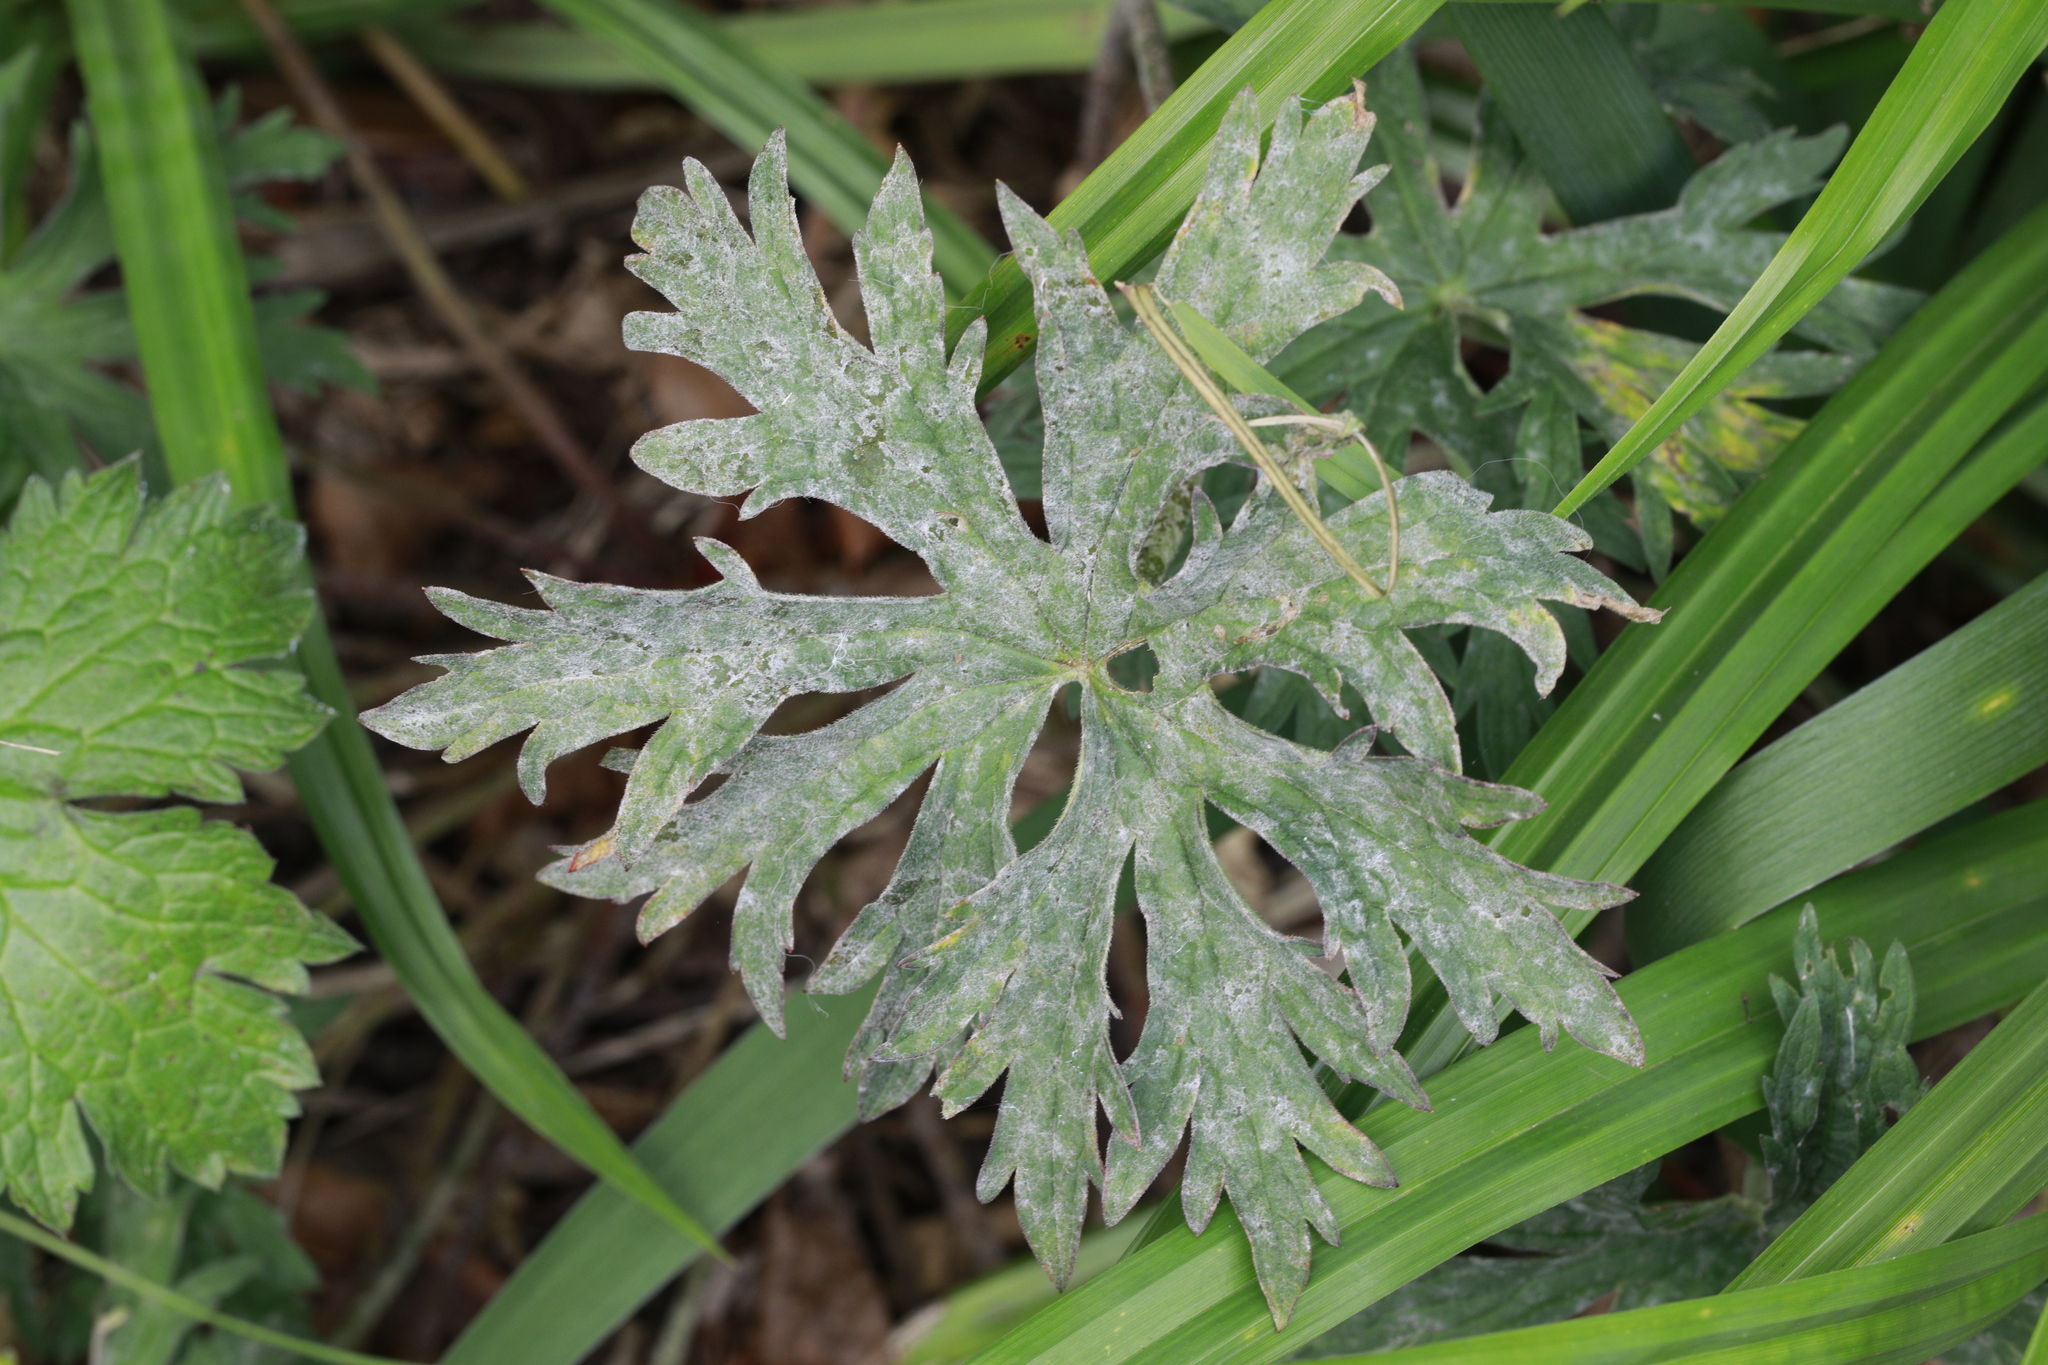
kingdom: Plantae
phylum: Tracheophyta
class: Magnoliopsida
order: Geraniales
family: Geraniaceae
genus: Geranium
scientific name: Geranium pratense
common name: Meadow crane's-bill
